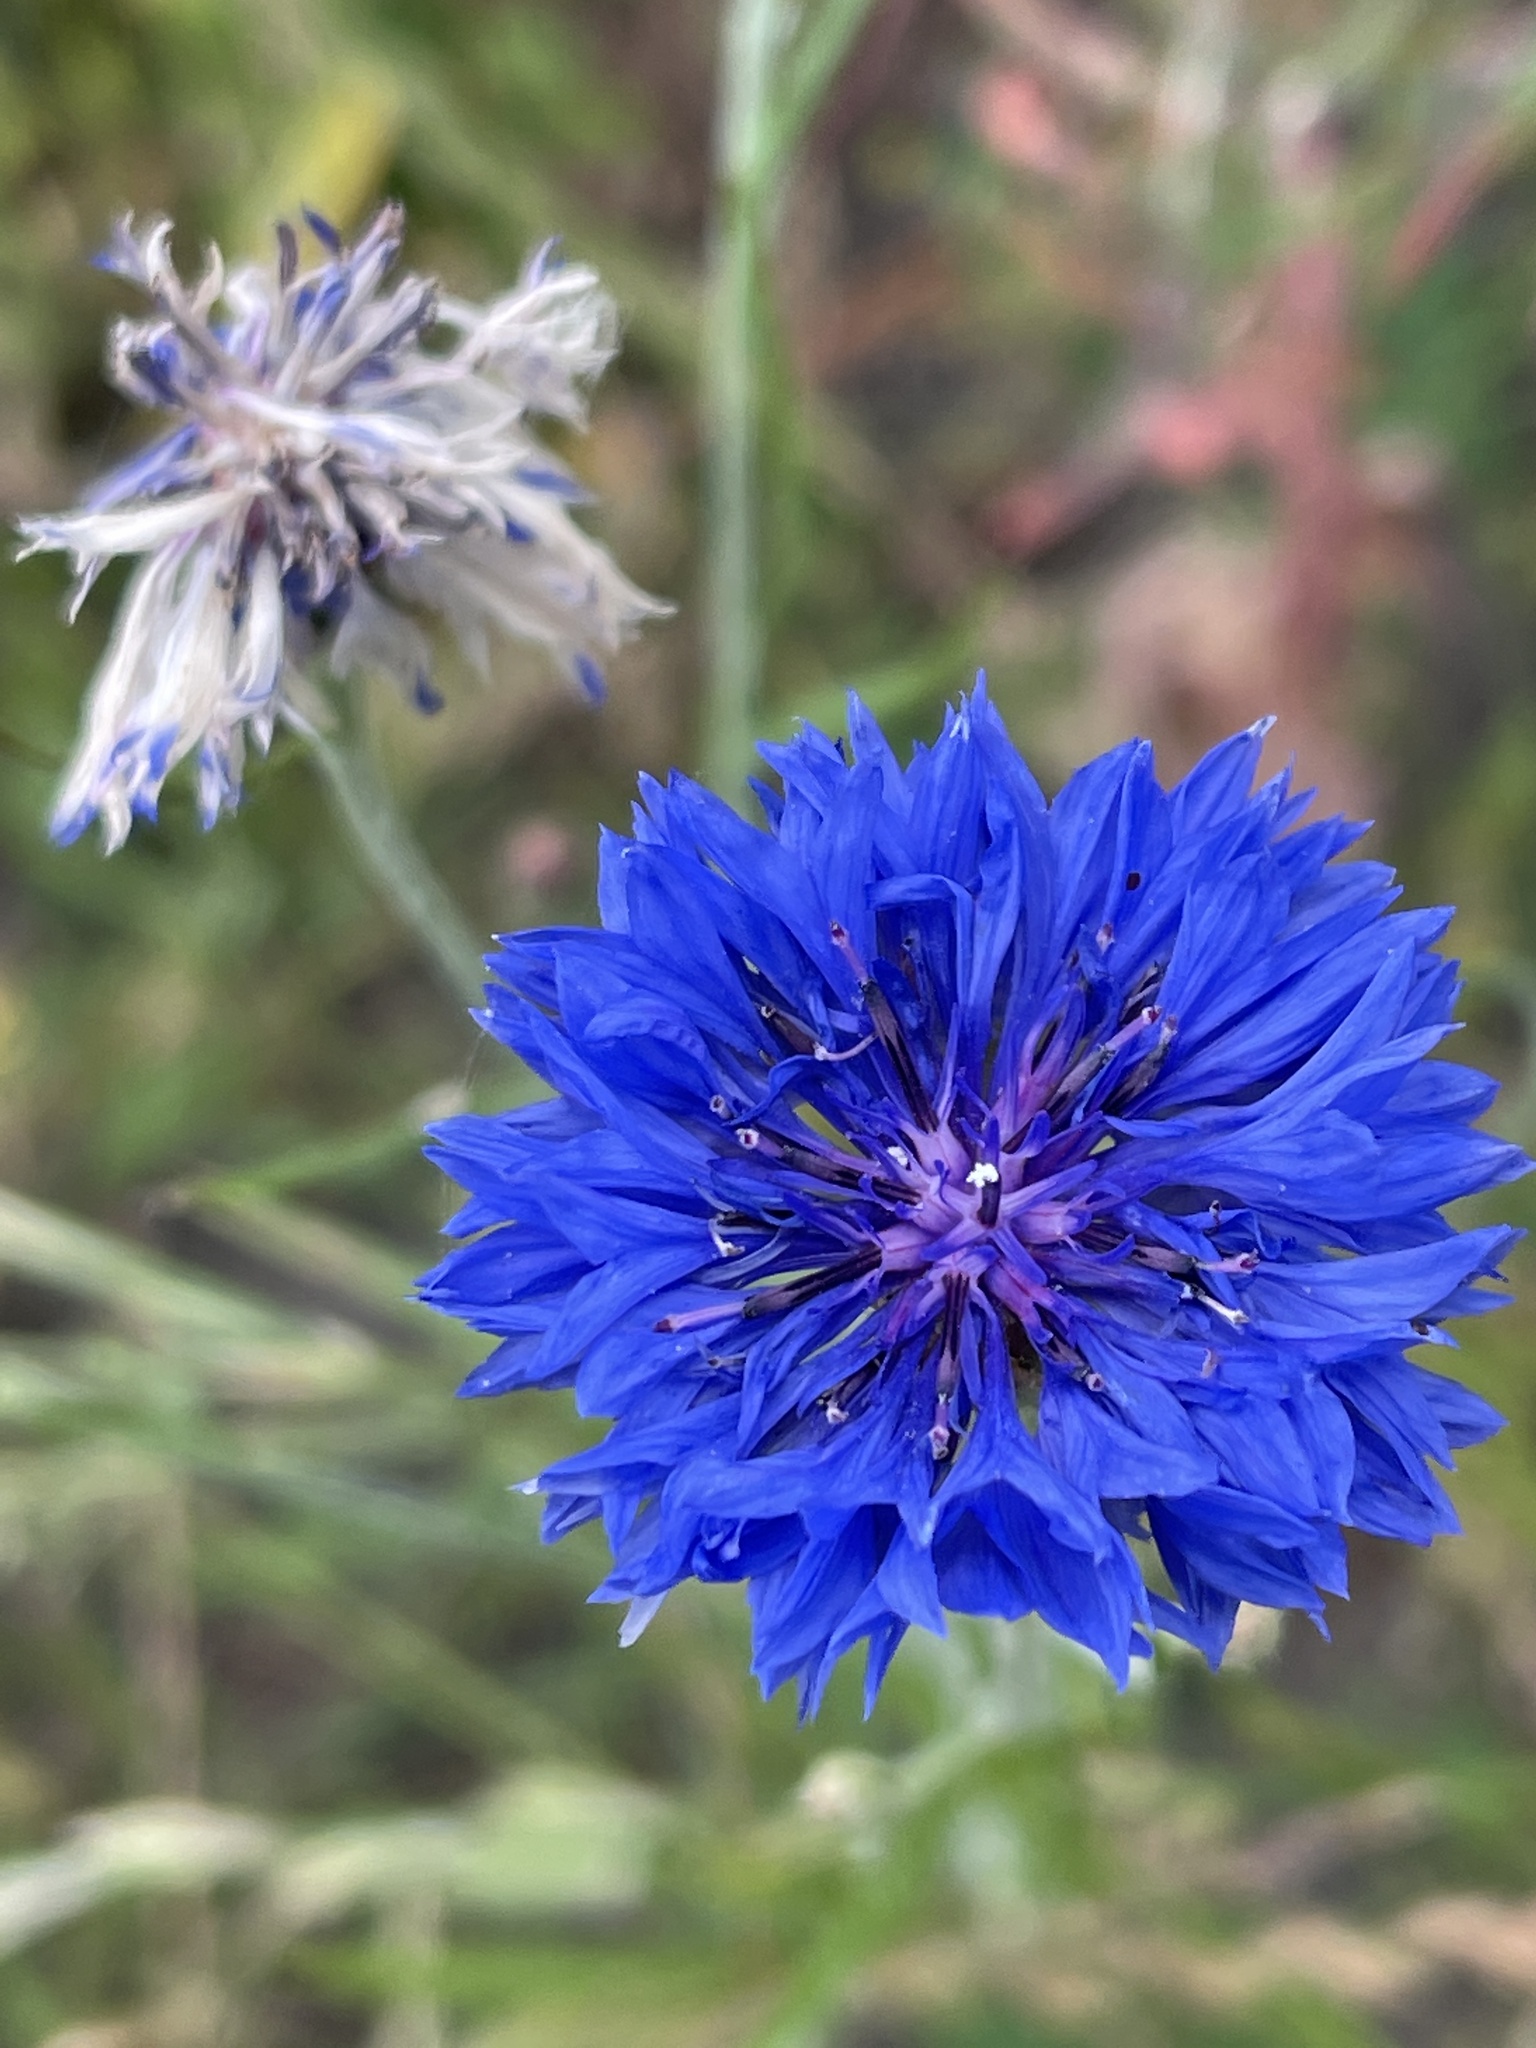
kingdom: Plantae
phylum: Tracheophyta
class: Magnoliopsida
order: Asterales
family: Asteraceae
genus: Centaurea
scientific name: Centaurea cyanus
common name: Cornflower
